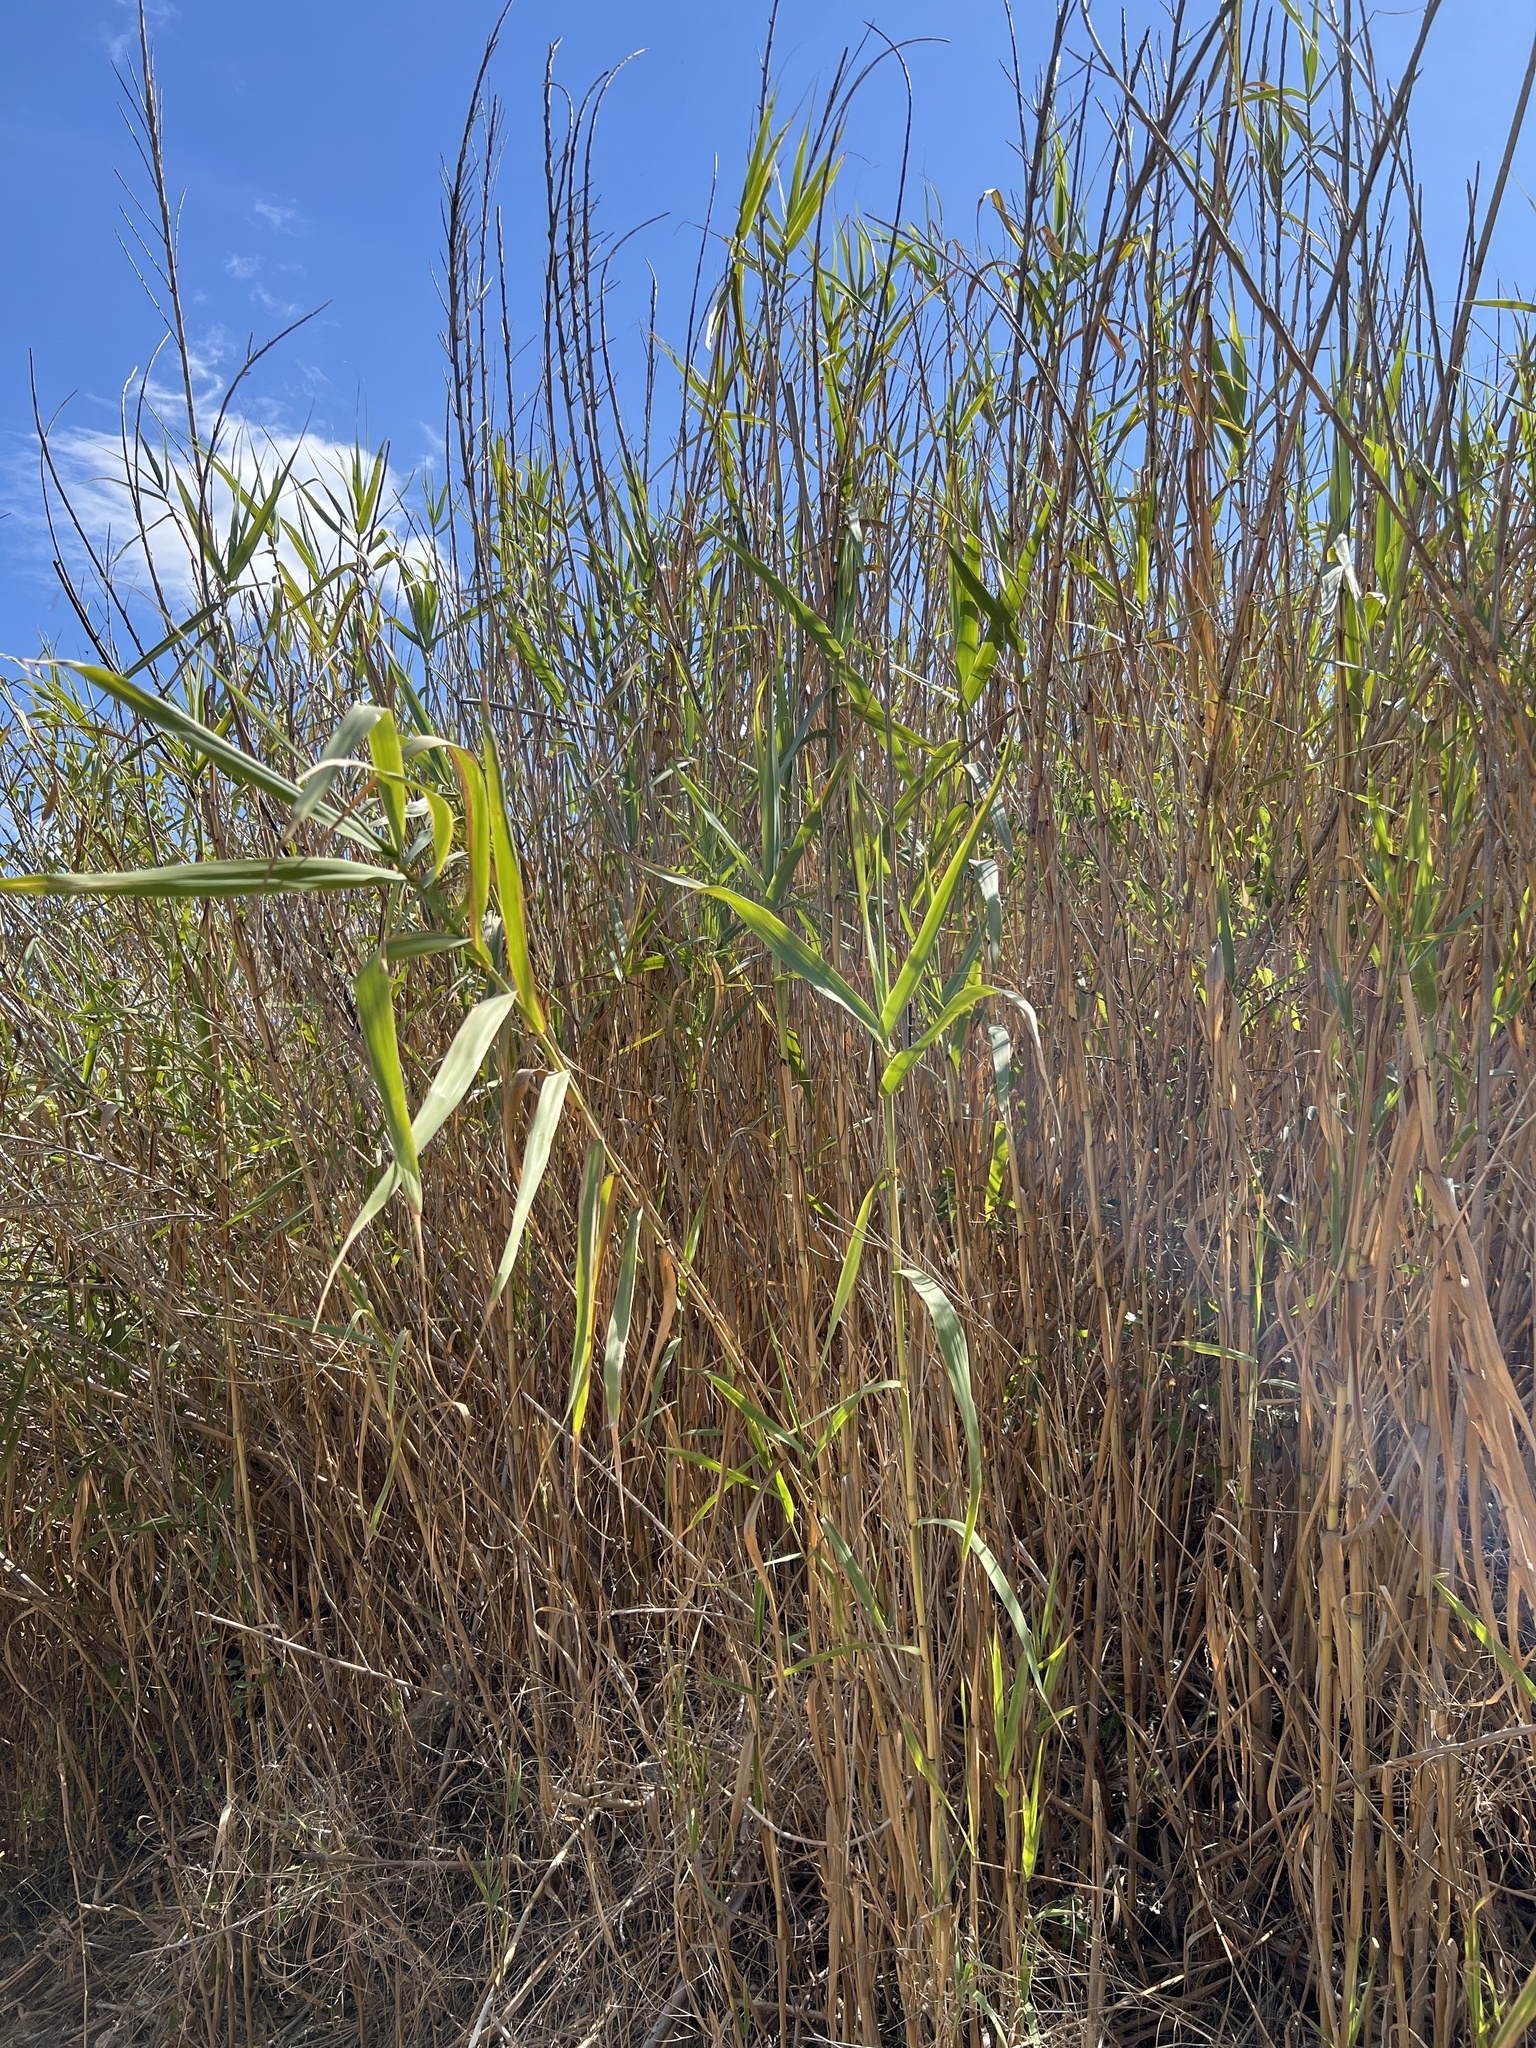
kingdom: Plantae
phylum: Tracheophyta
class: Liliopsida
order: Poales
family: Poaceae
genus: Arundo
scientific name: Arundo donax
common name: Giant reed
